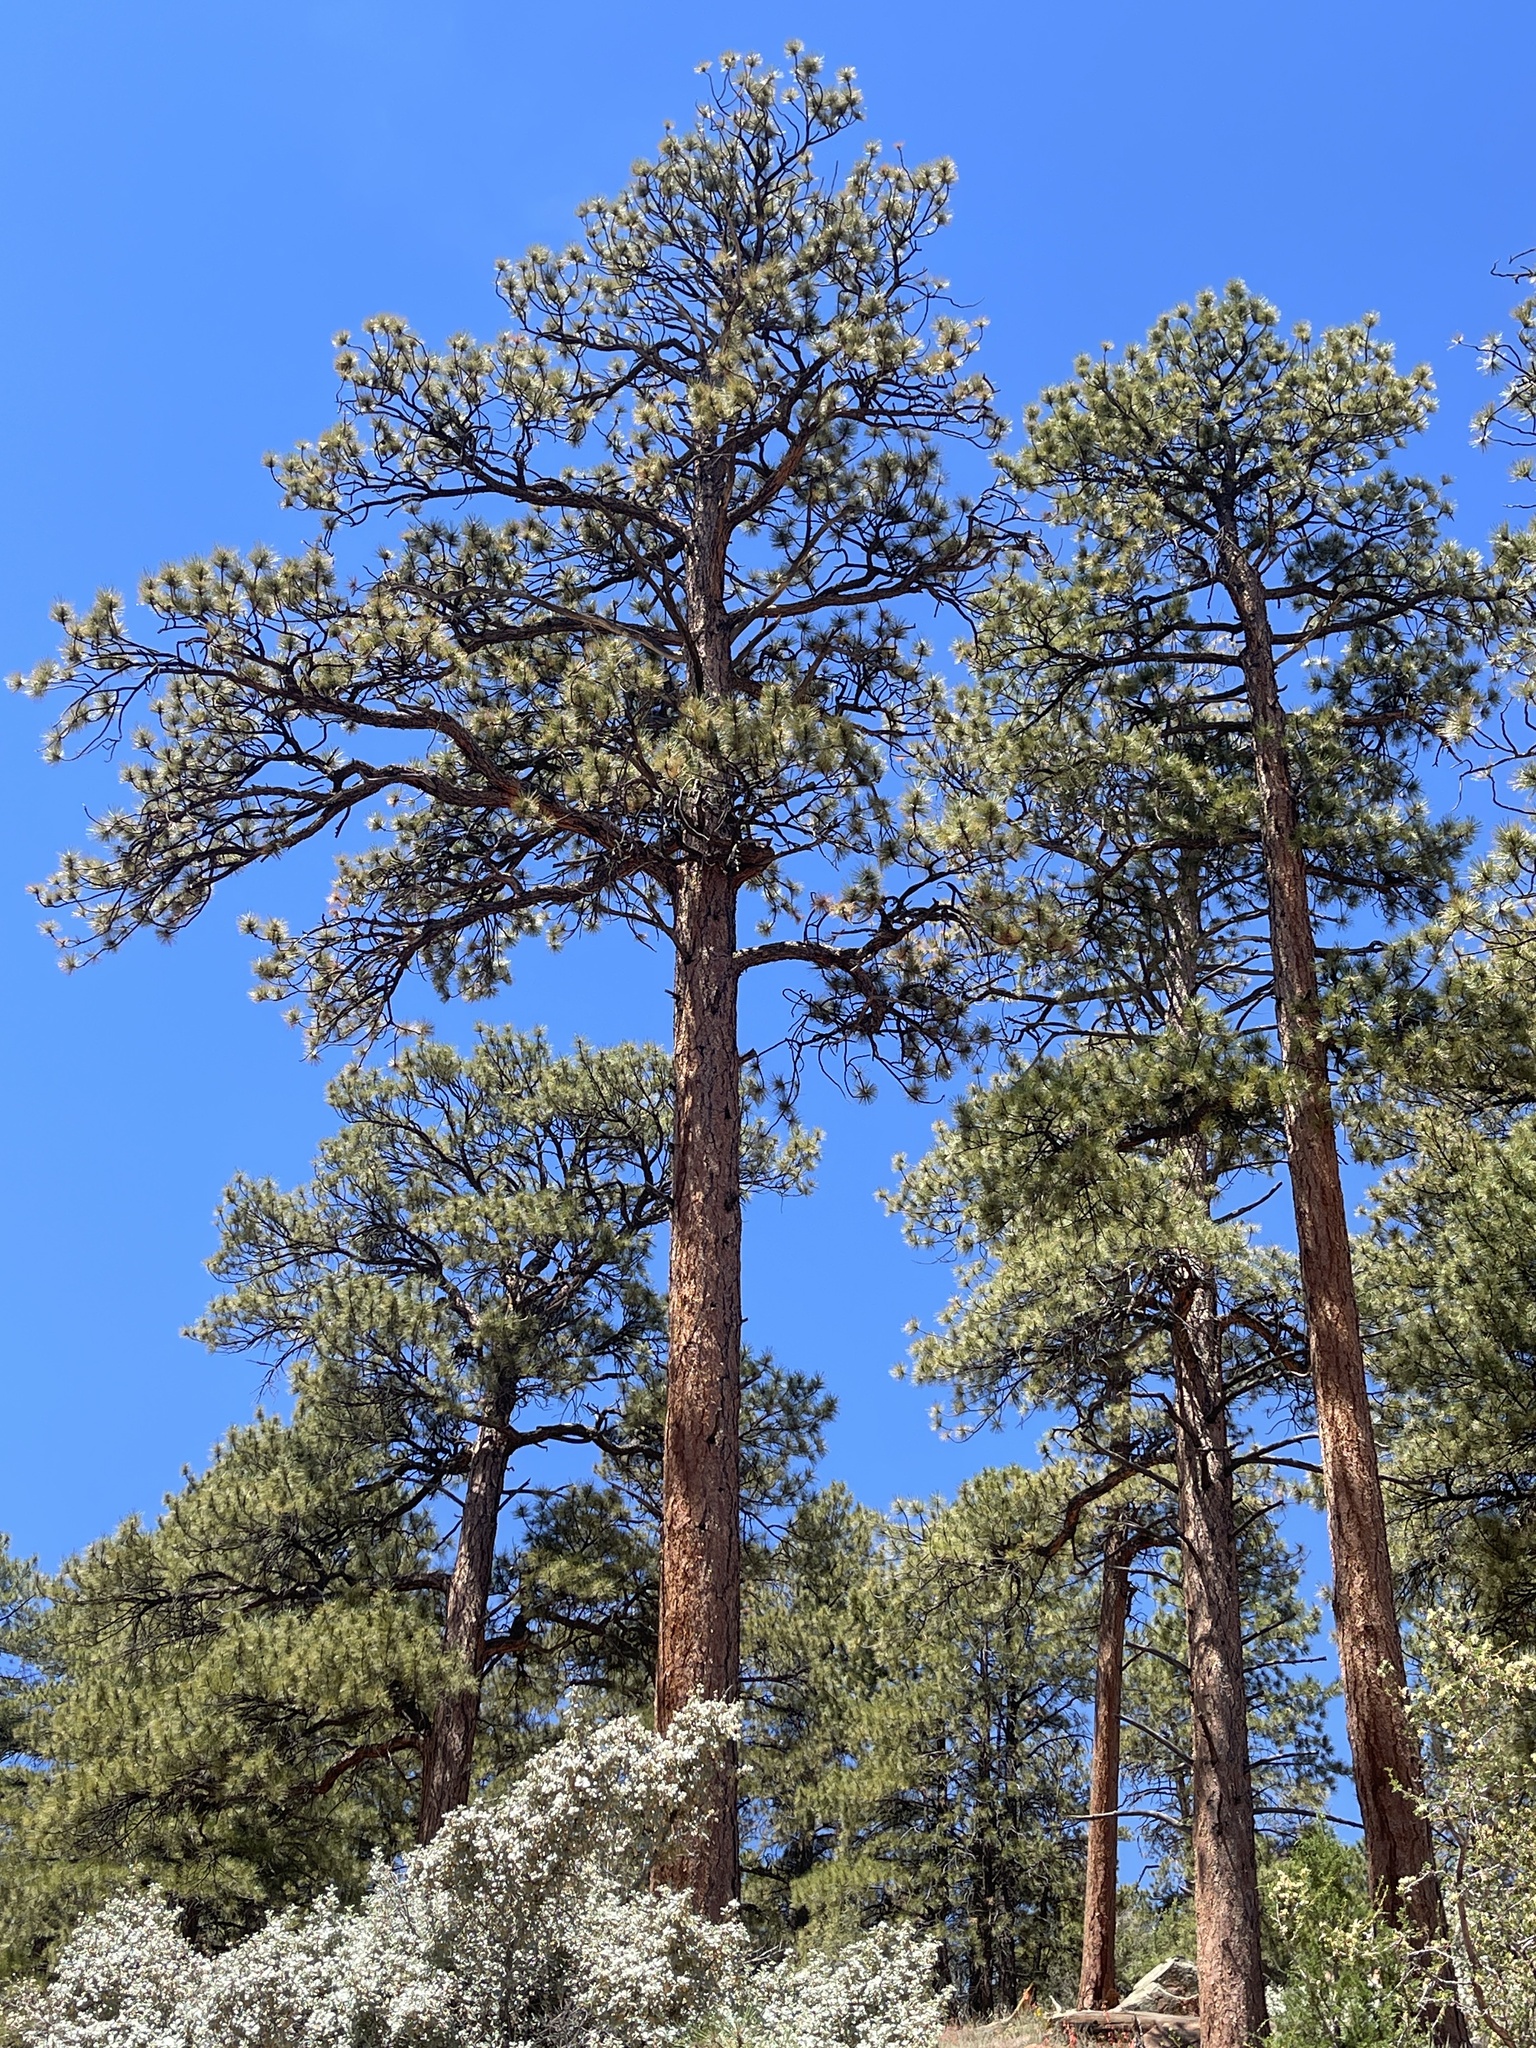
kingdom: Plantae
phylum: Tracheophyta
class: Pinopsida
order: Pinales
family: Pinaceae
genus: Pinus
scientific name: Pinus ponderosa
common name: Western yellow-pine
